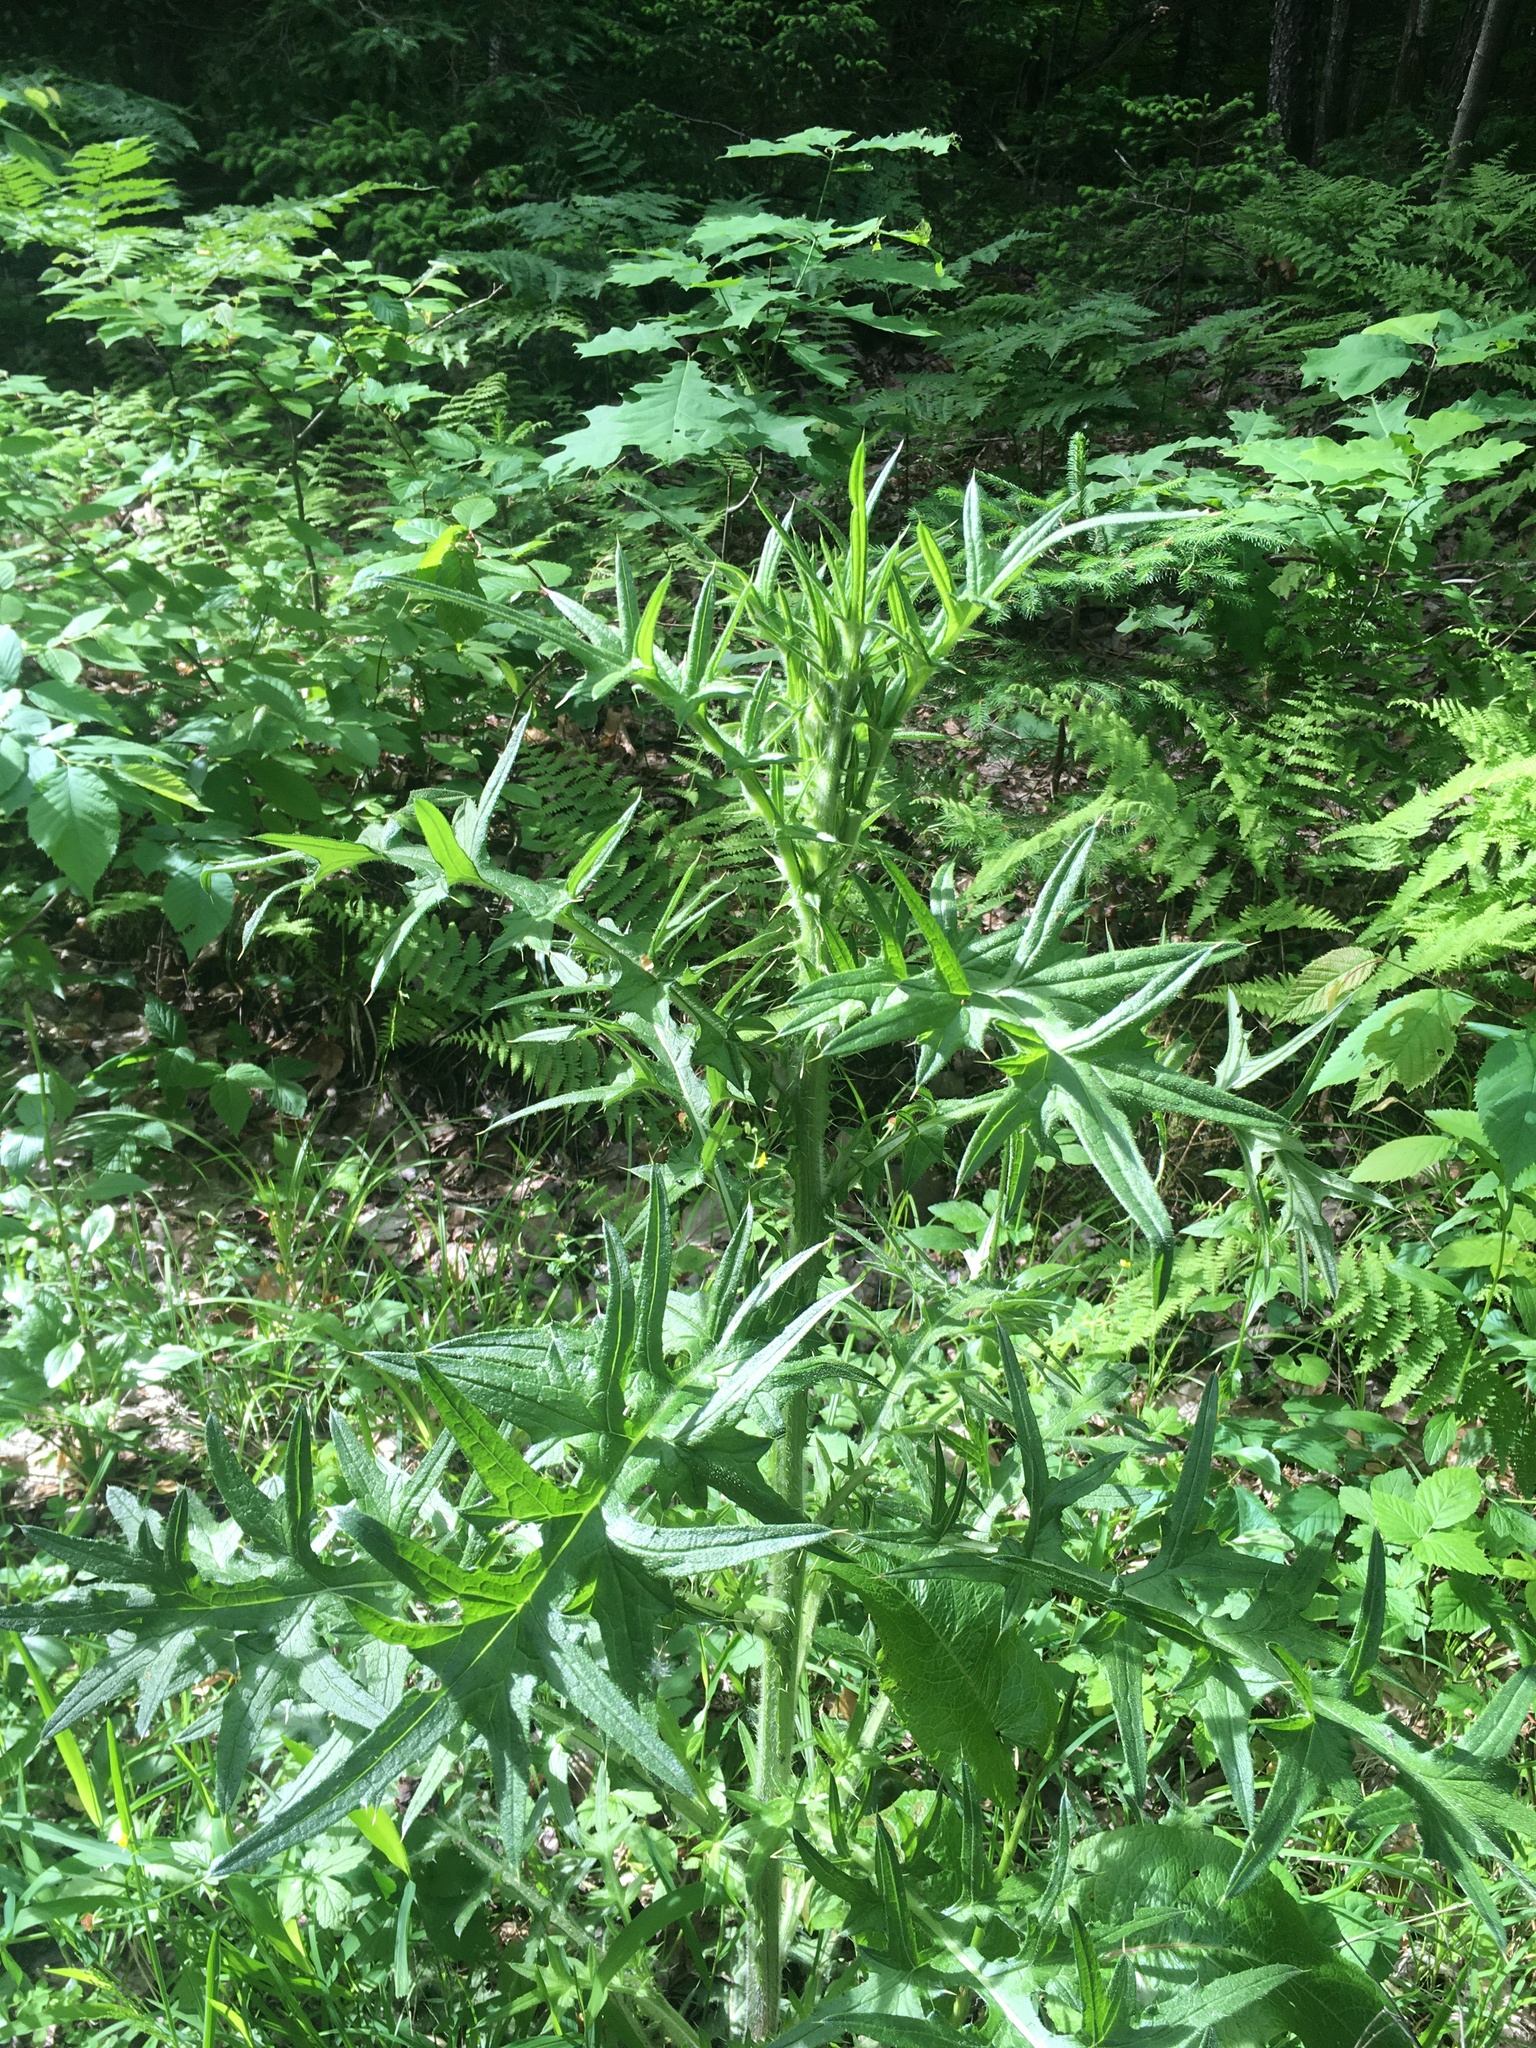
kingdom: Plantae
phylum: Tracheophyta
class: Magnoliopsida
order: Asterales
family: Asteraceae
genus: Cirsium
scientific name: Cirsium vulgare
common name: Bull thistle
